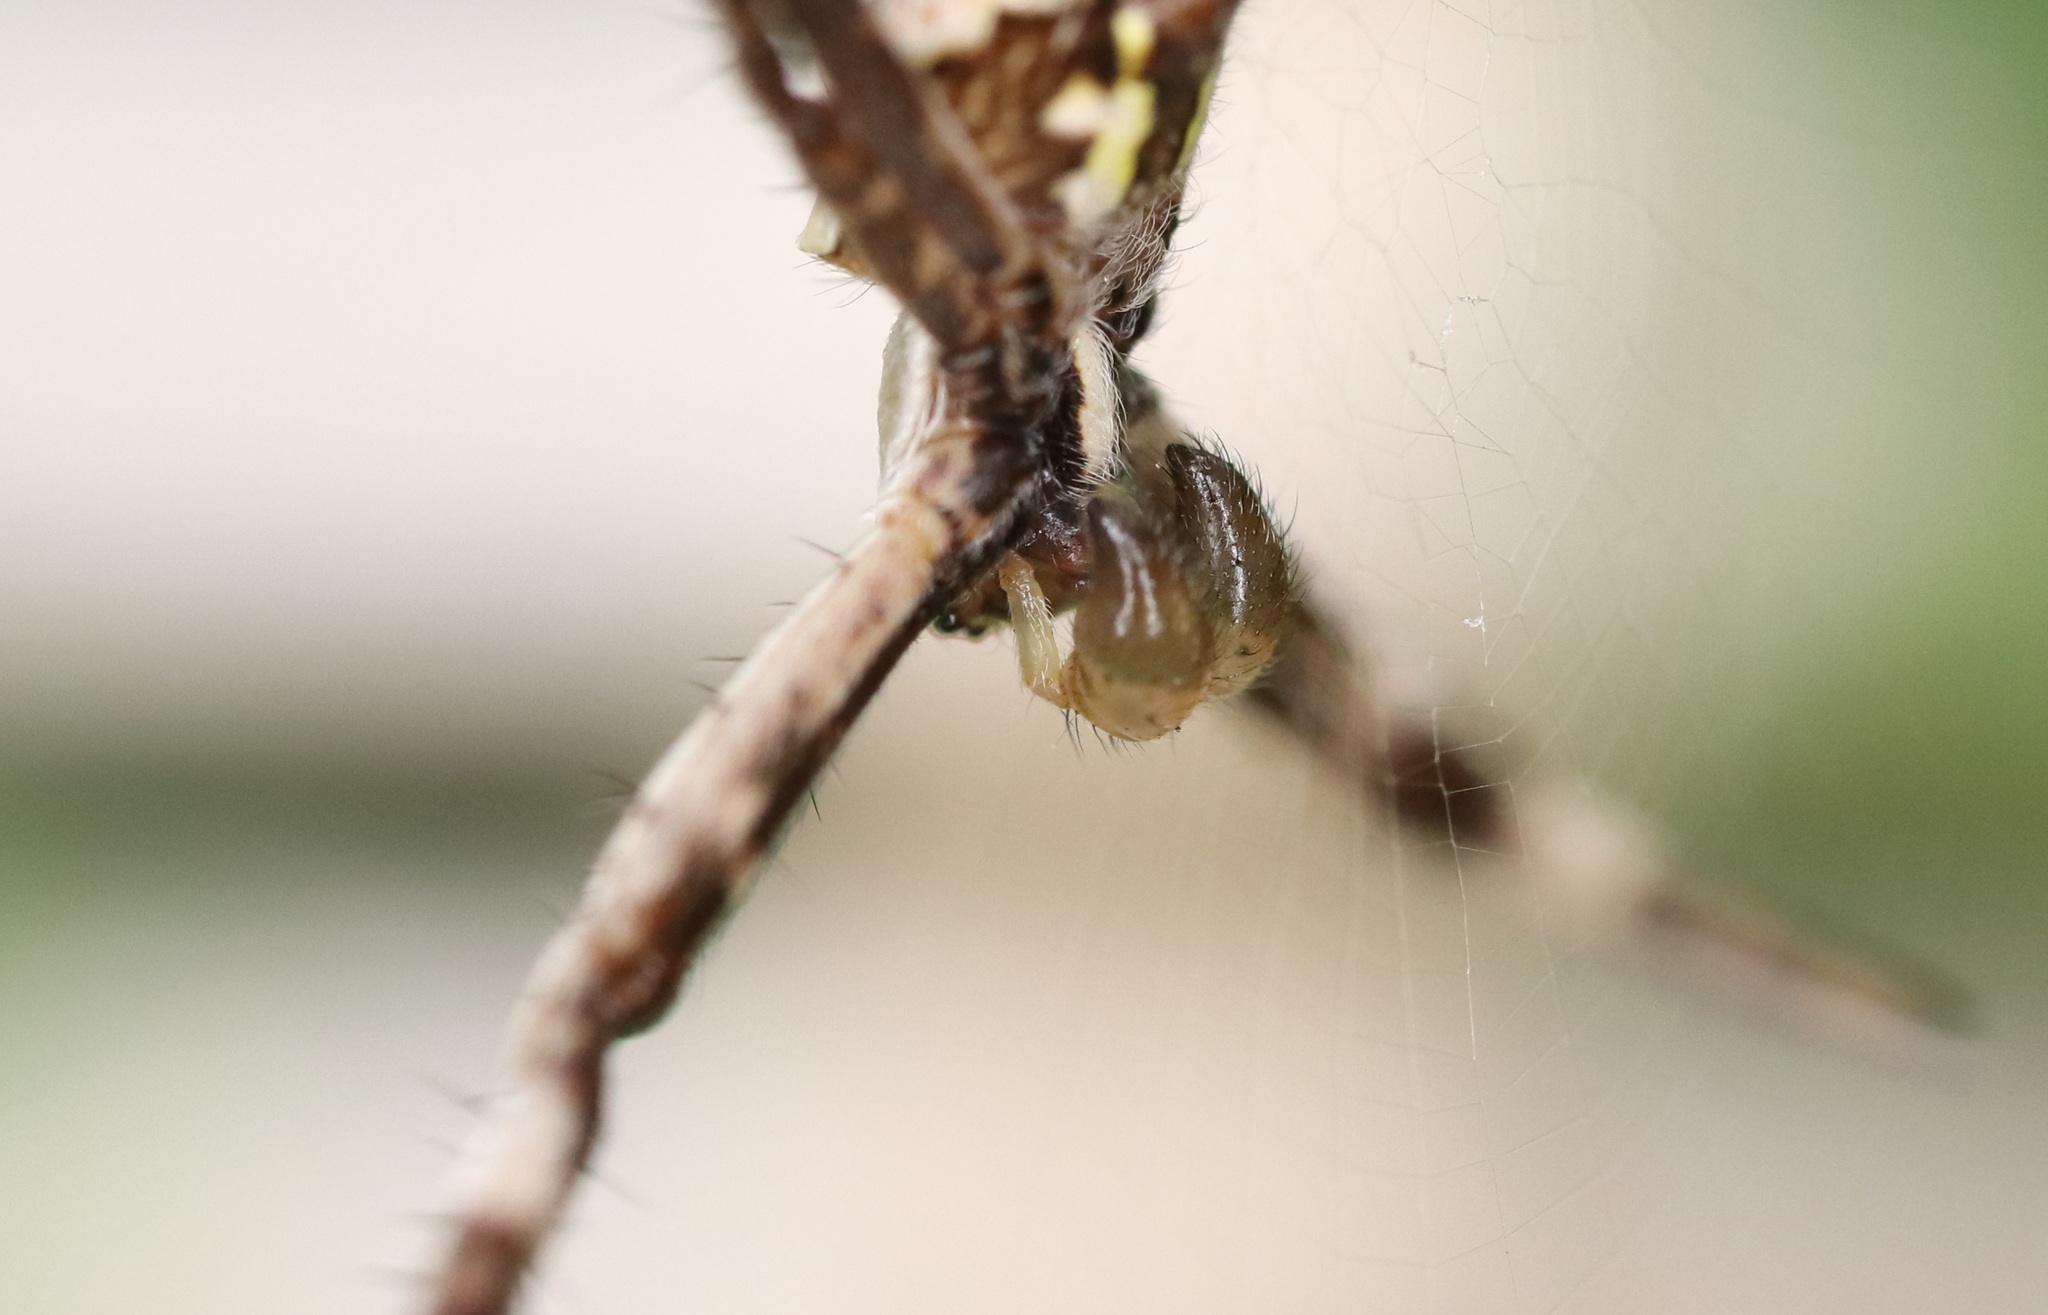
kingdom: Animalia
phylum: Arthropoda
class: Arachnida
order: Araneae
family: Araneidae
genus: Argiope
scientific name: Argiope amoena
